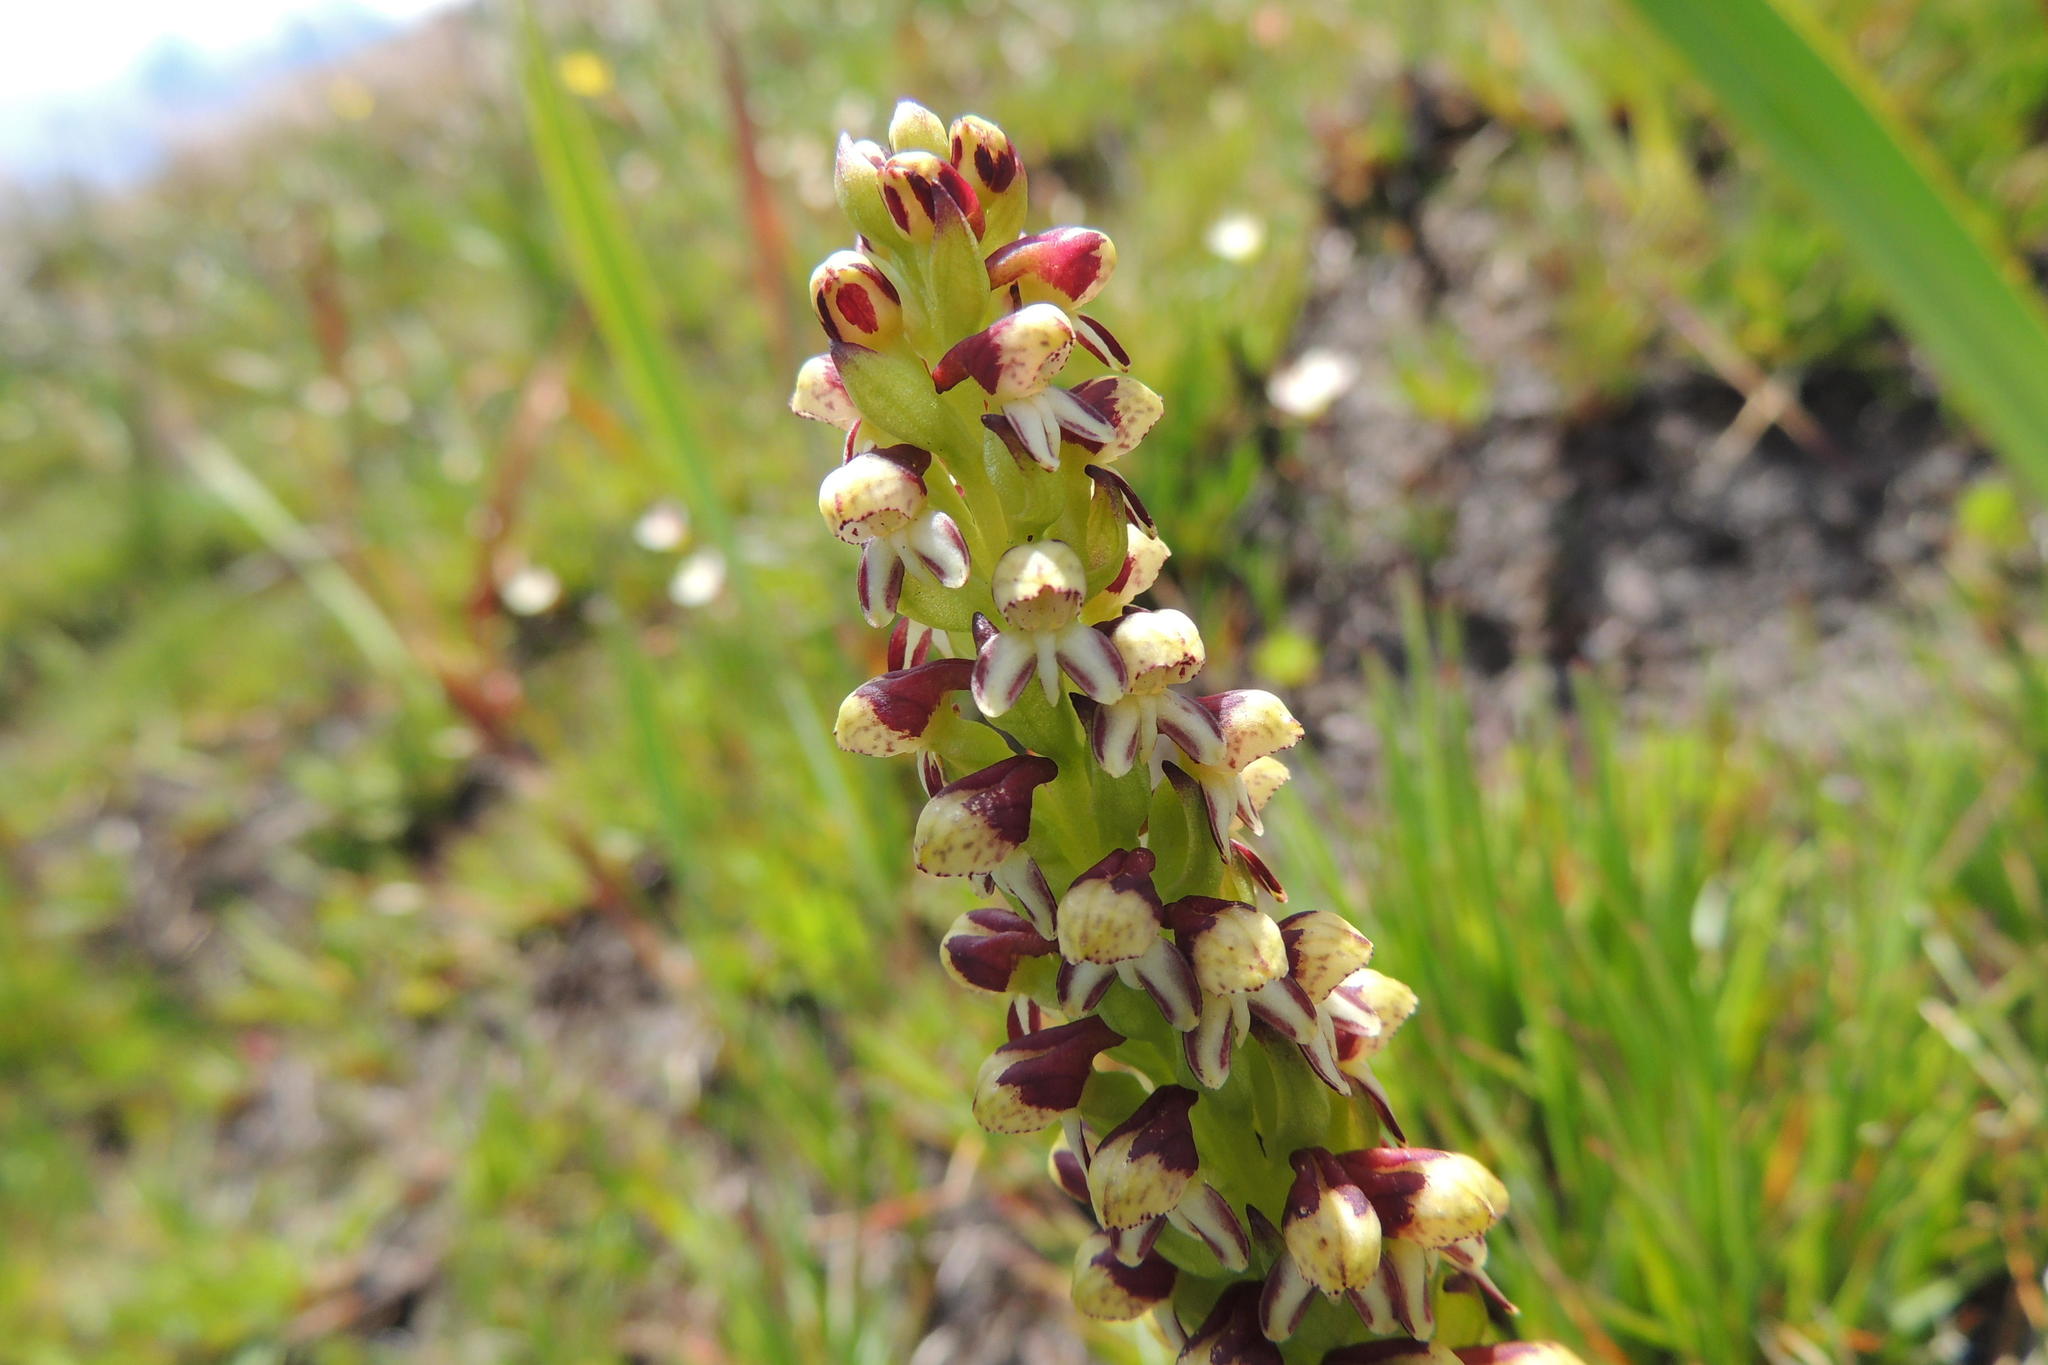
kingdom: Plantae
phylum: Tracheophyta
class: Liliopsida
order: Asparagales
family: Orchidaceae
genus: Disa
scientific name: Disa obtusa
